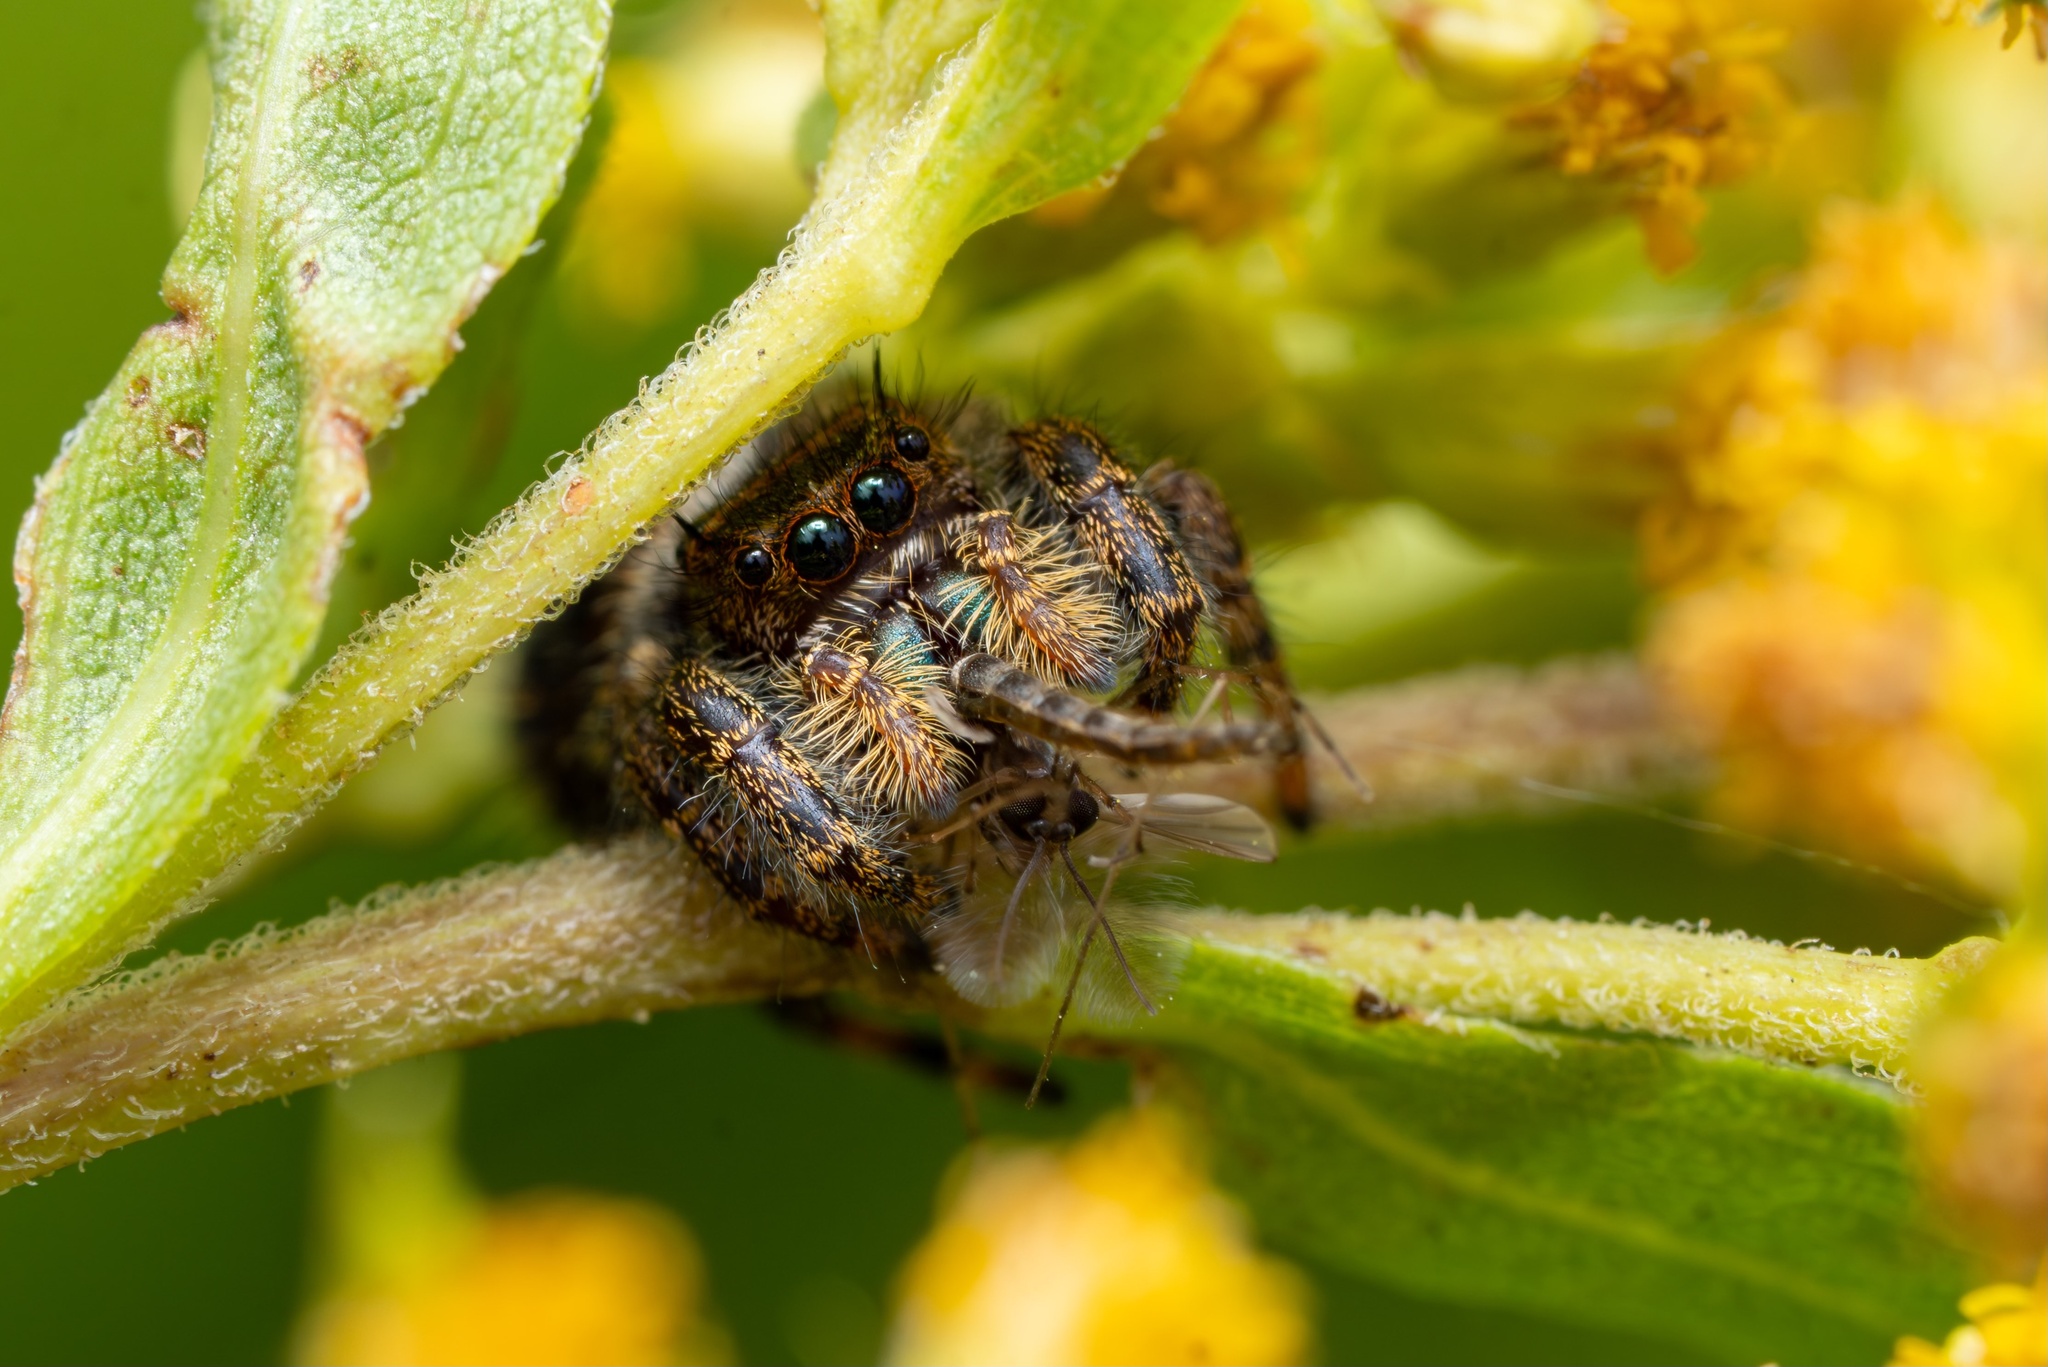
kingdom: Animalia
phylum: Arthropoda
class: Arachnida
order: Araneae
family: Salticidae
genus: Phidippus
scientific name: Phidippus audax
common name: Bold jumper
